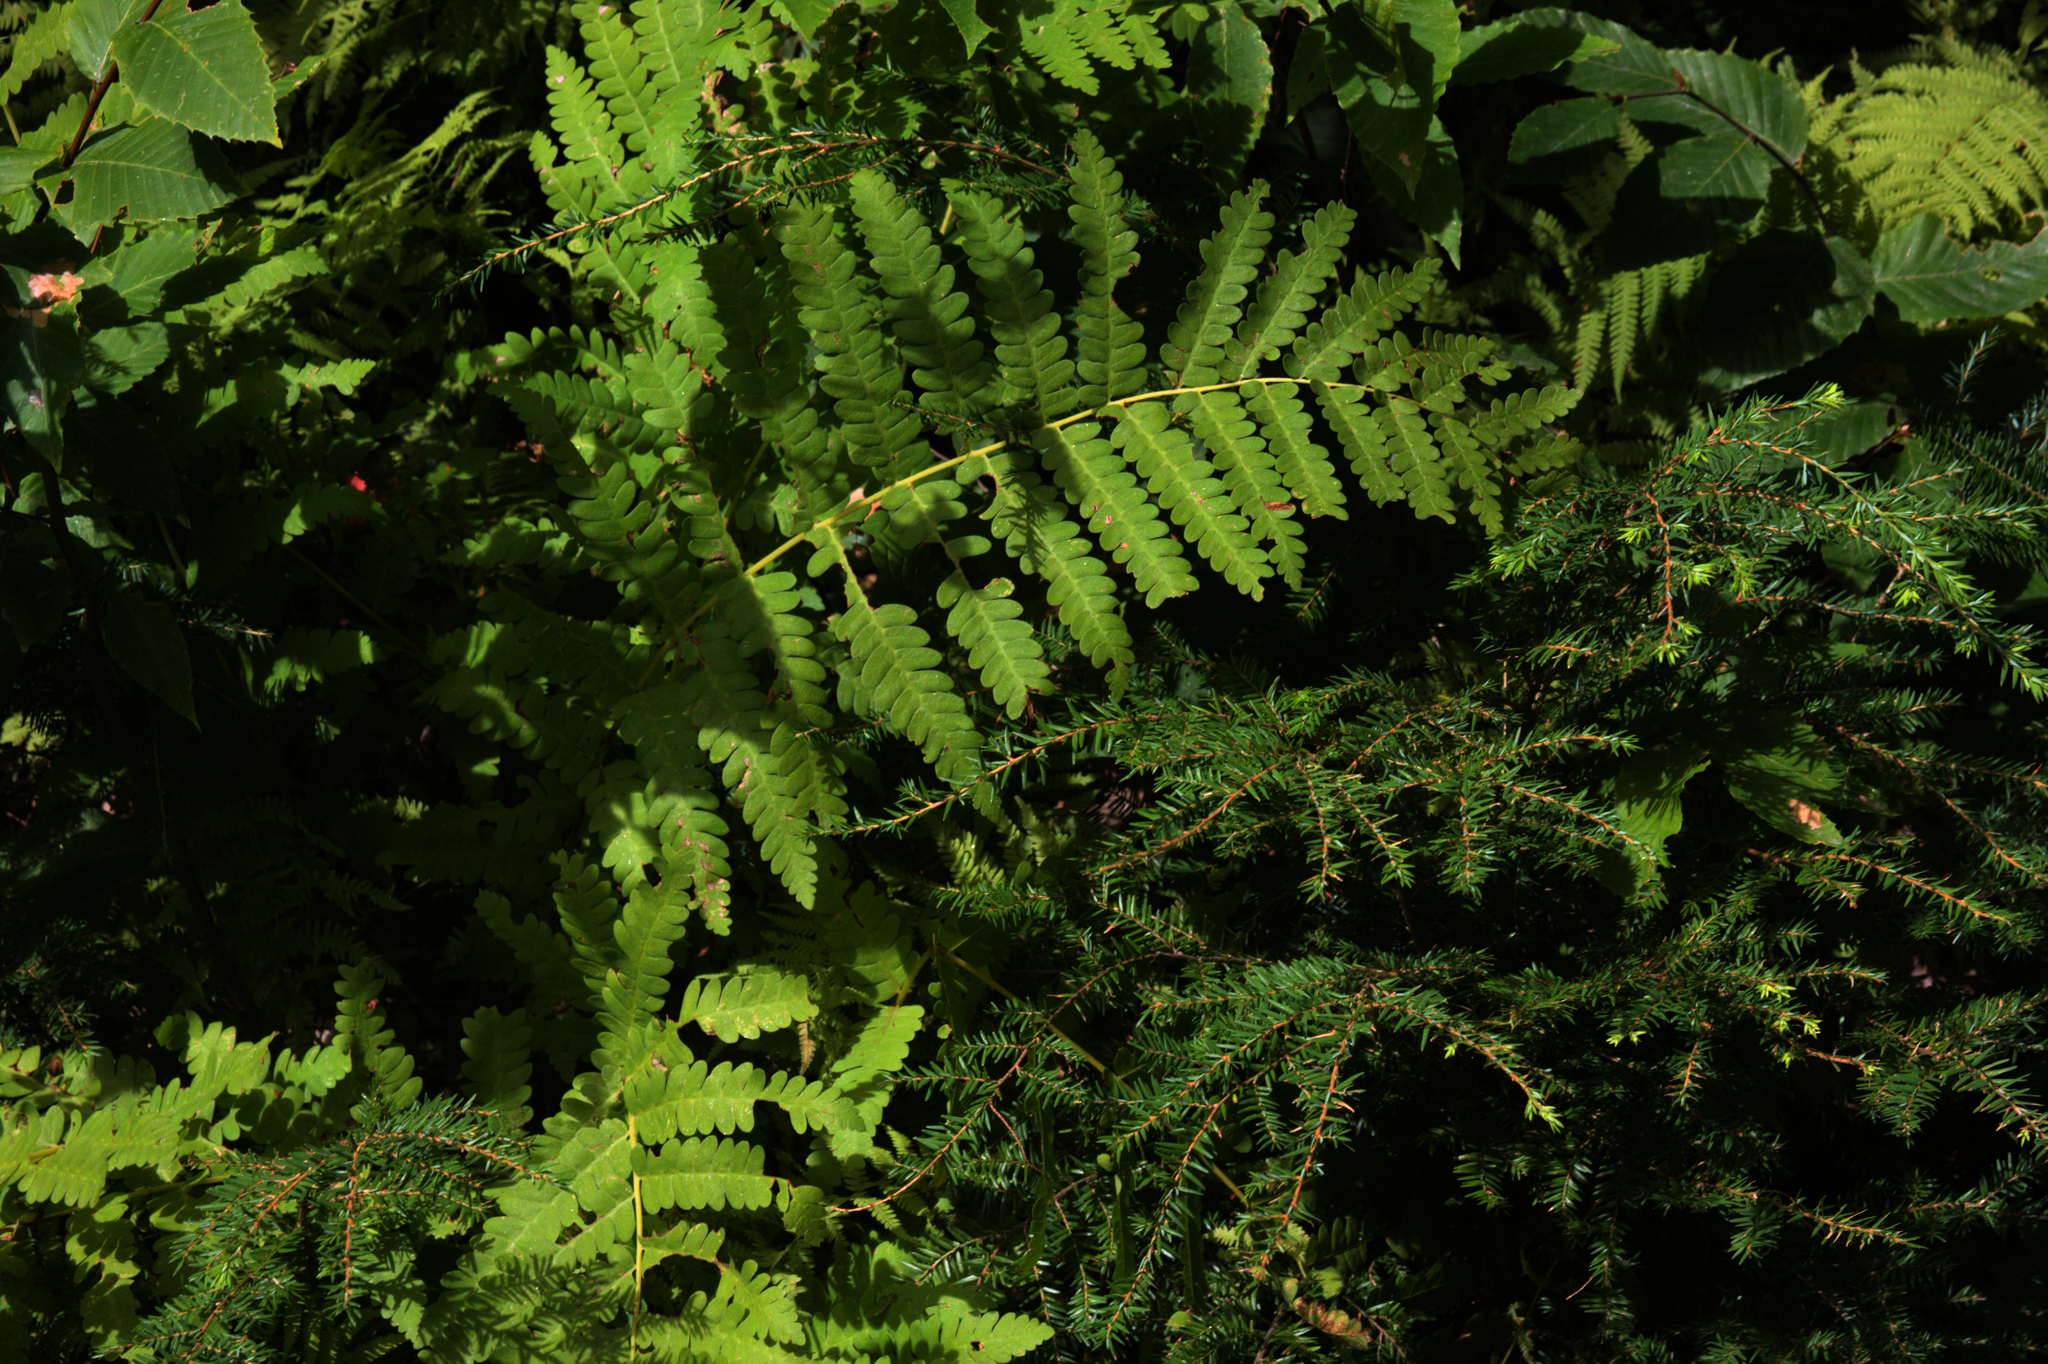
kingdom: Plantae
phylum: Tracheophyta
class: Polypodiopsida
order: Osmundales
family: Osmundaceae
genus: Claytosmunda
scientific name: Claytosmunda claytoniana
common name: Clayton's fern
